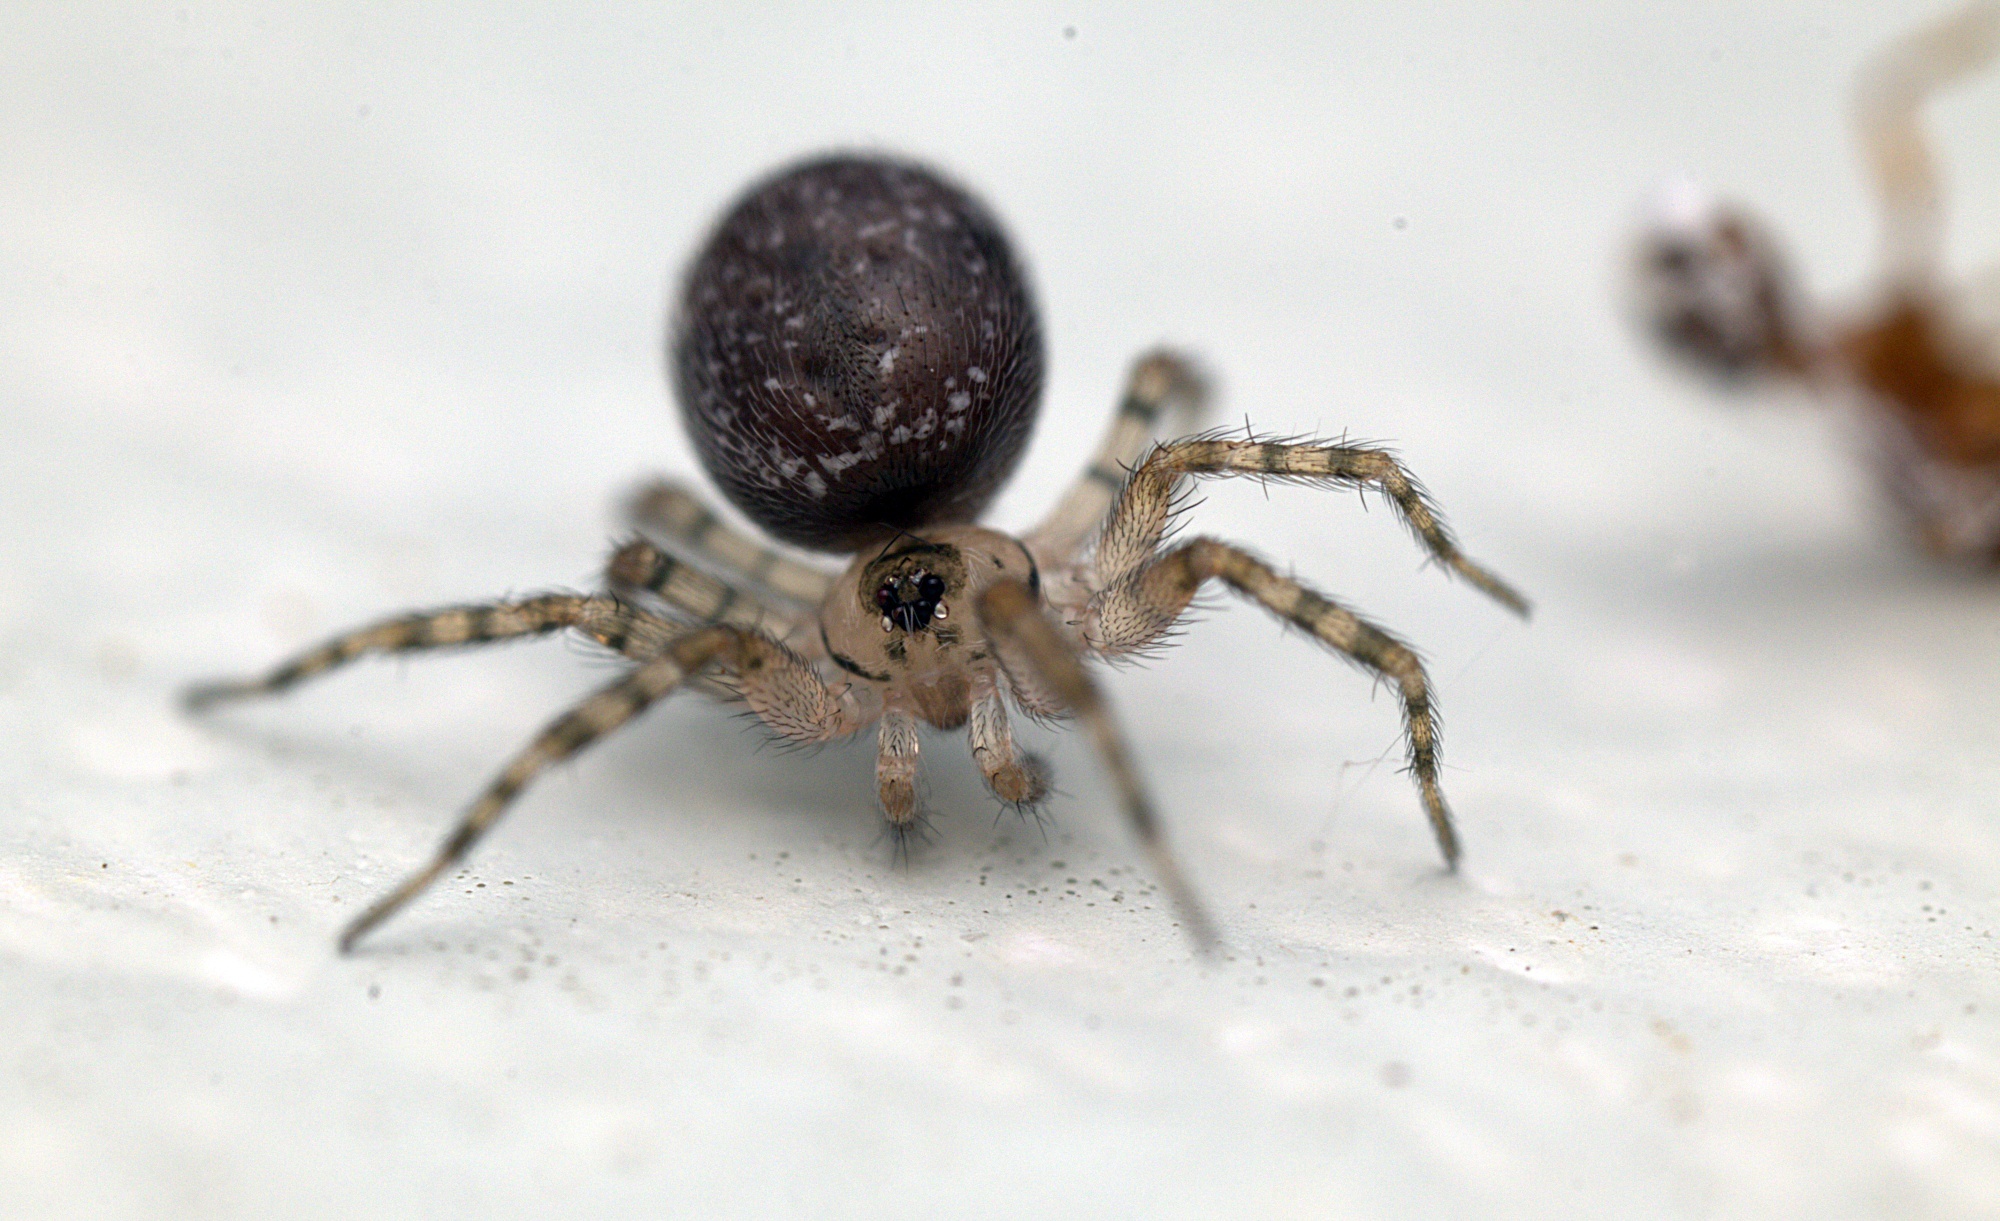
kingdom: Animalia
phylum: Arthropoda
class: Arachnida
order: Araneae
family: Oecobiidae
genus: Oecobius
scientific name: Oecobius navus
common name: Flatmesh weaver
